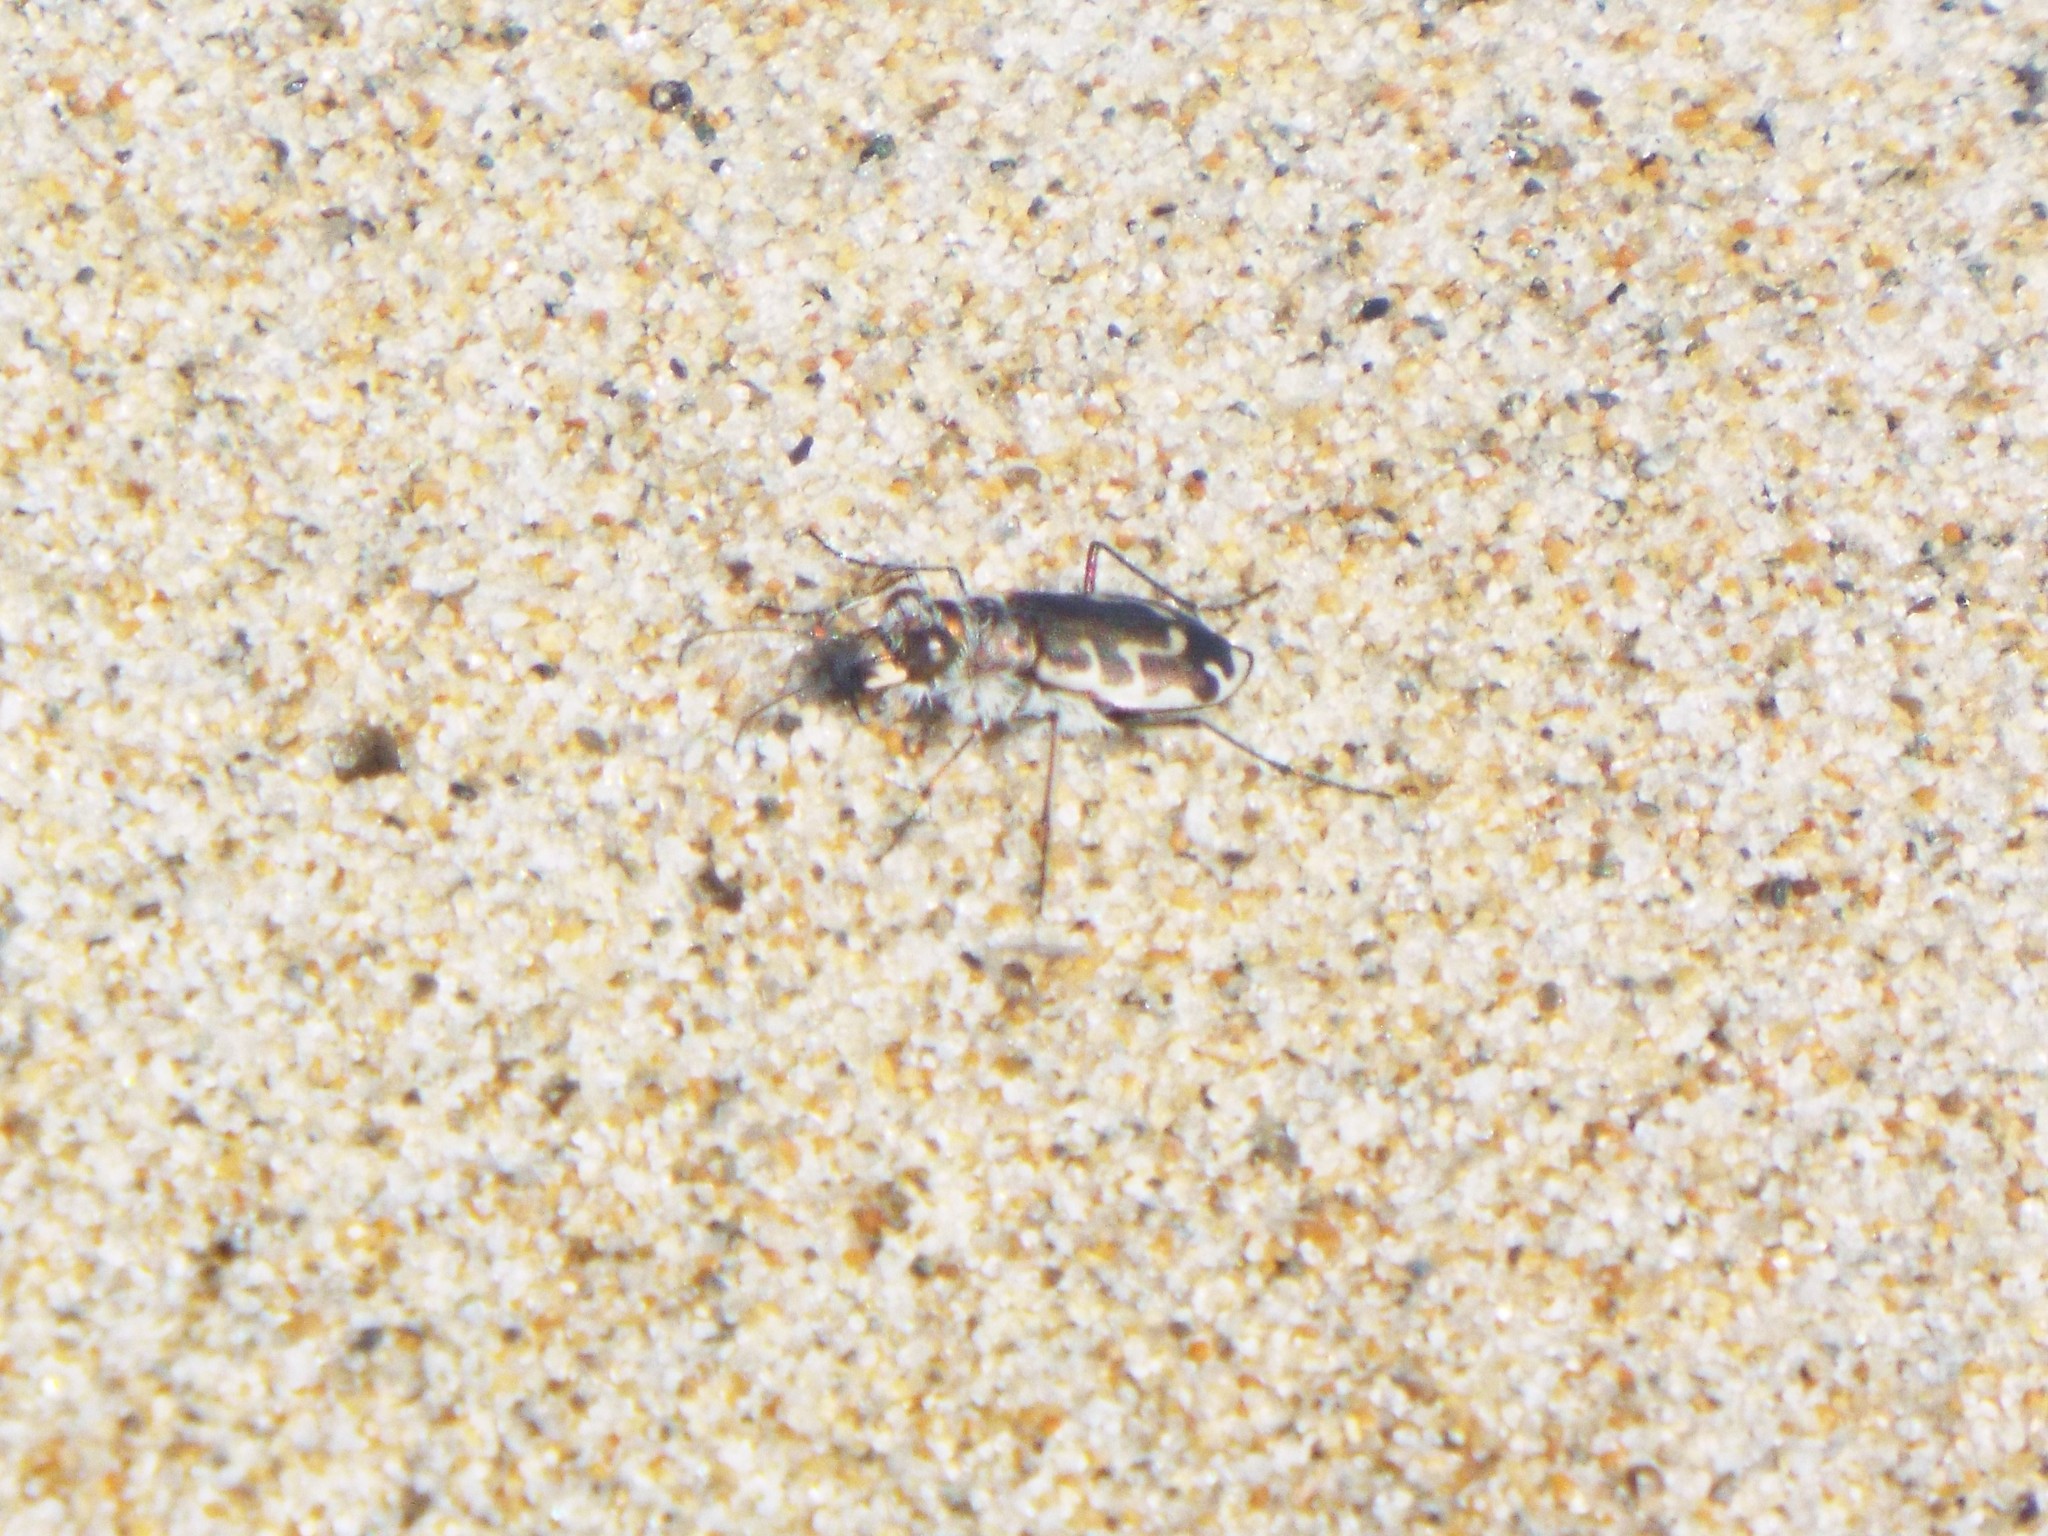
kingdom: Animalia
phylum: Arthropoda
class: Insecta
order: Coleoptera
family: Carabidae
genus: Cicindela
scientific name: Cicindela hirticollis
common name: Hairy-necked tiger beetle
